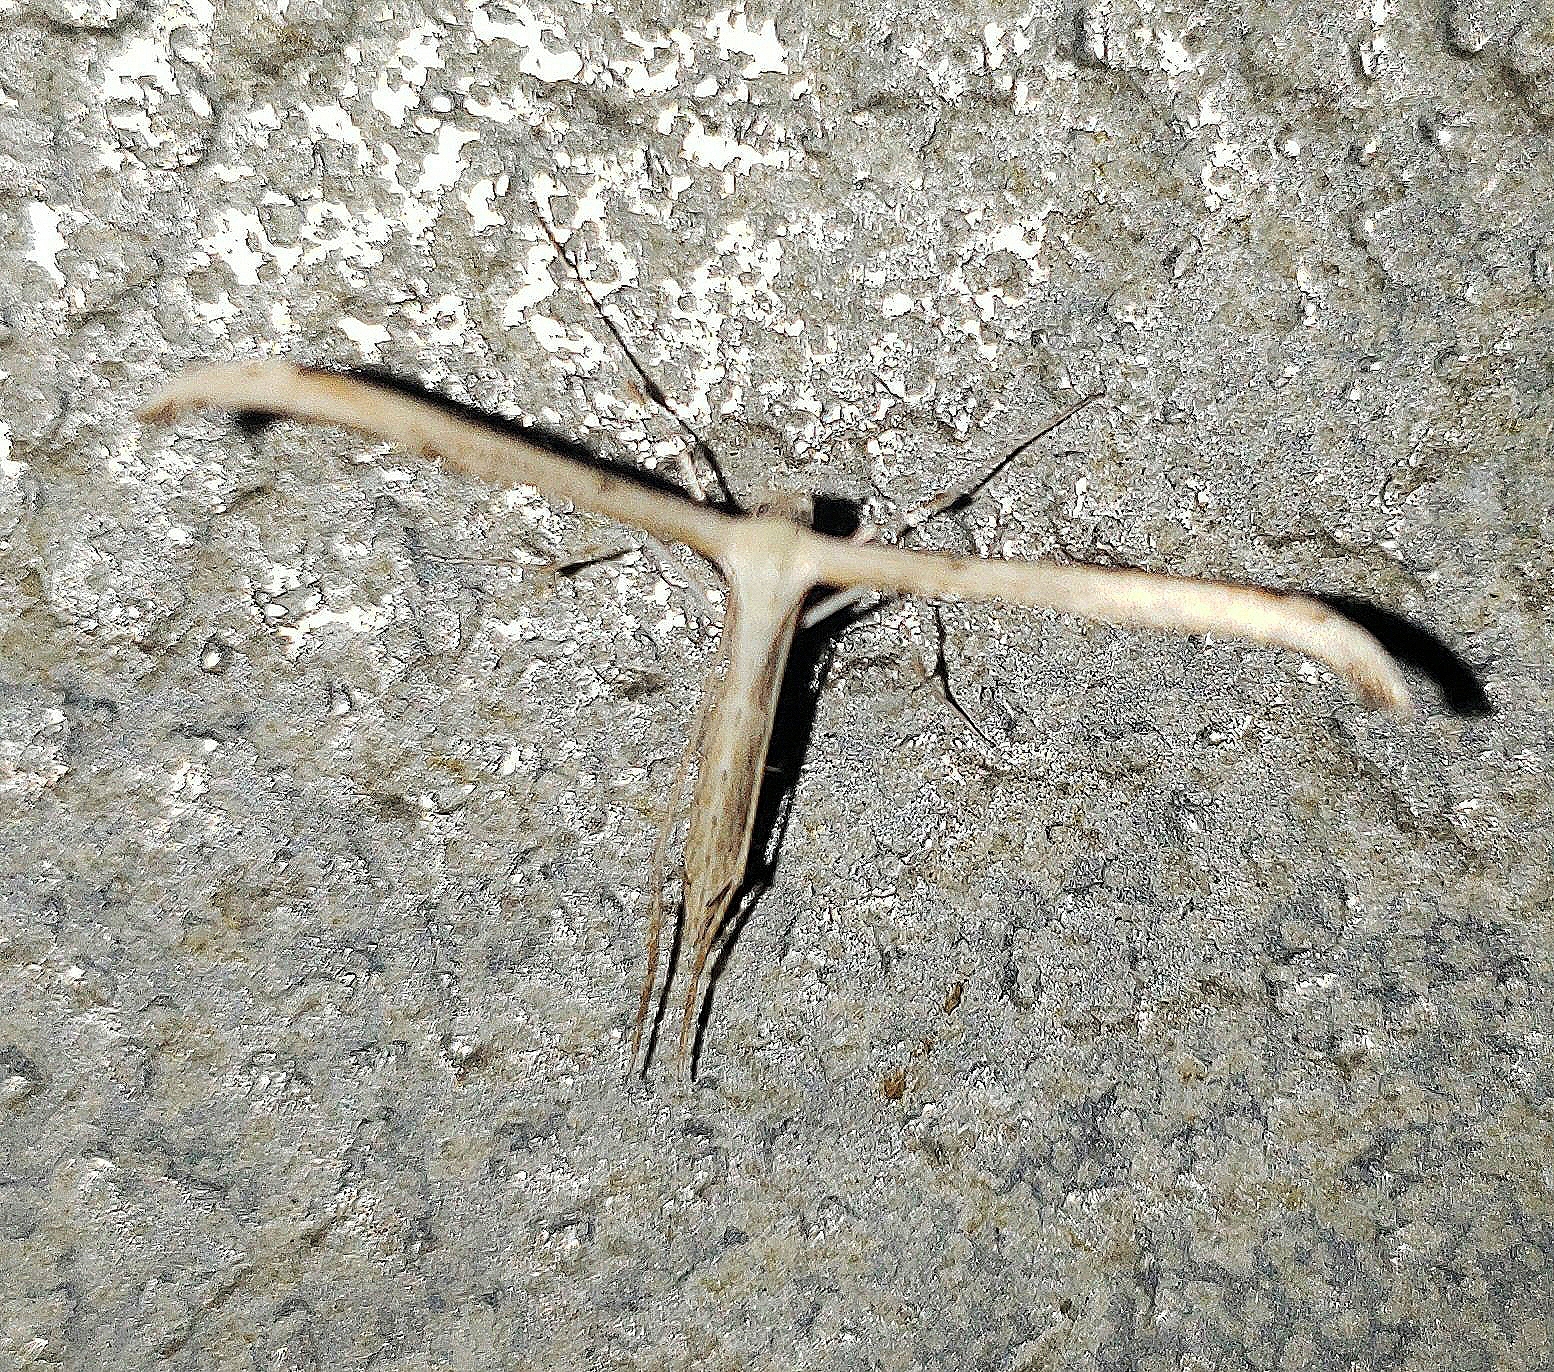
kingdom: Animalia
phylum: Arthropoda
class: Insecta
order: Lepidoptera
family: Pterophoridae
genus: Emmelina
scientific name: Emmelina monodactyla
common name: Common plume
